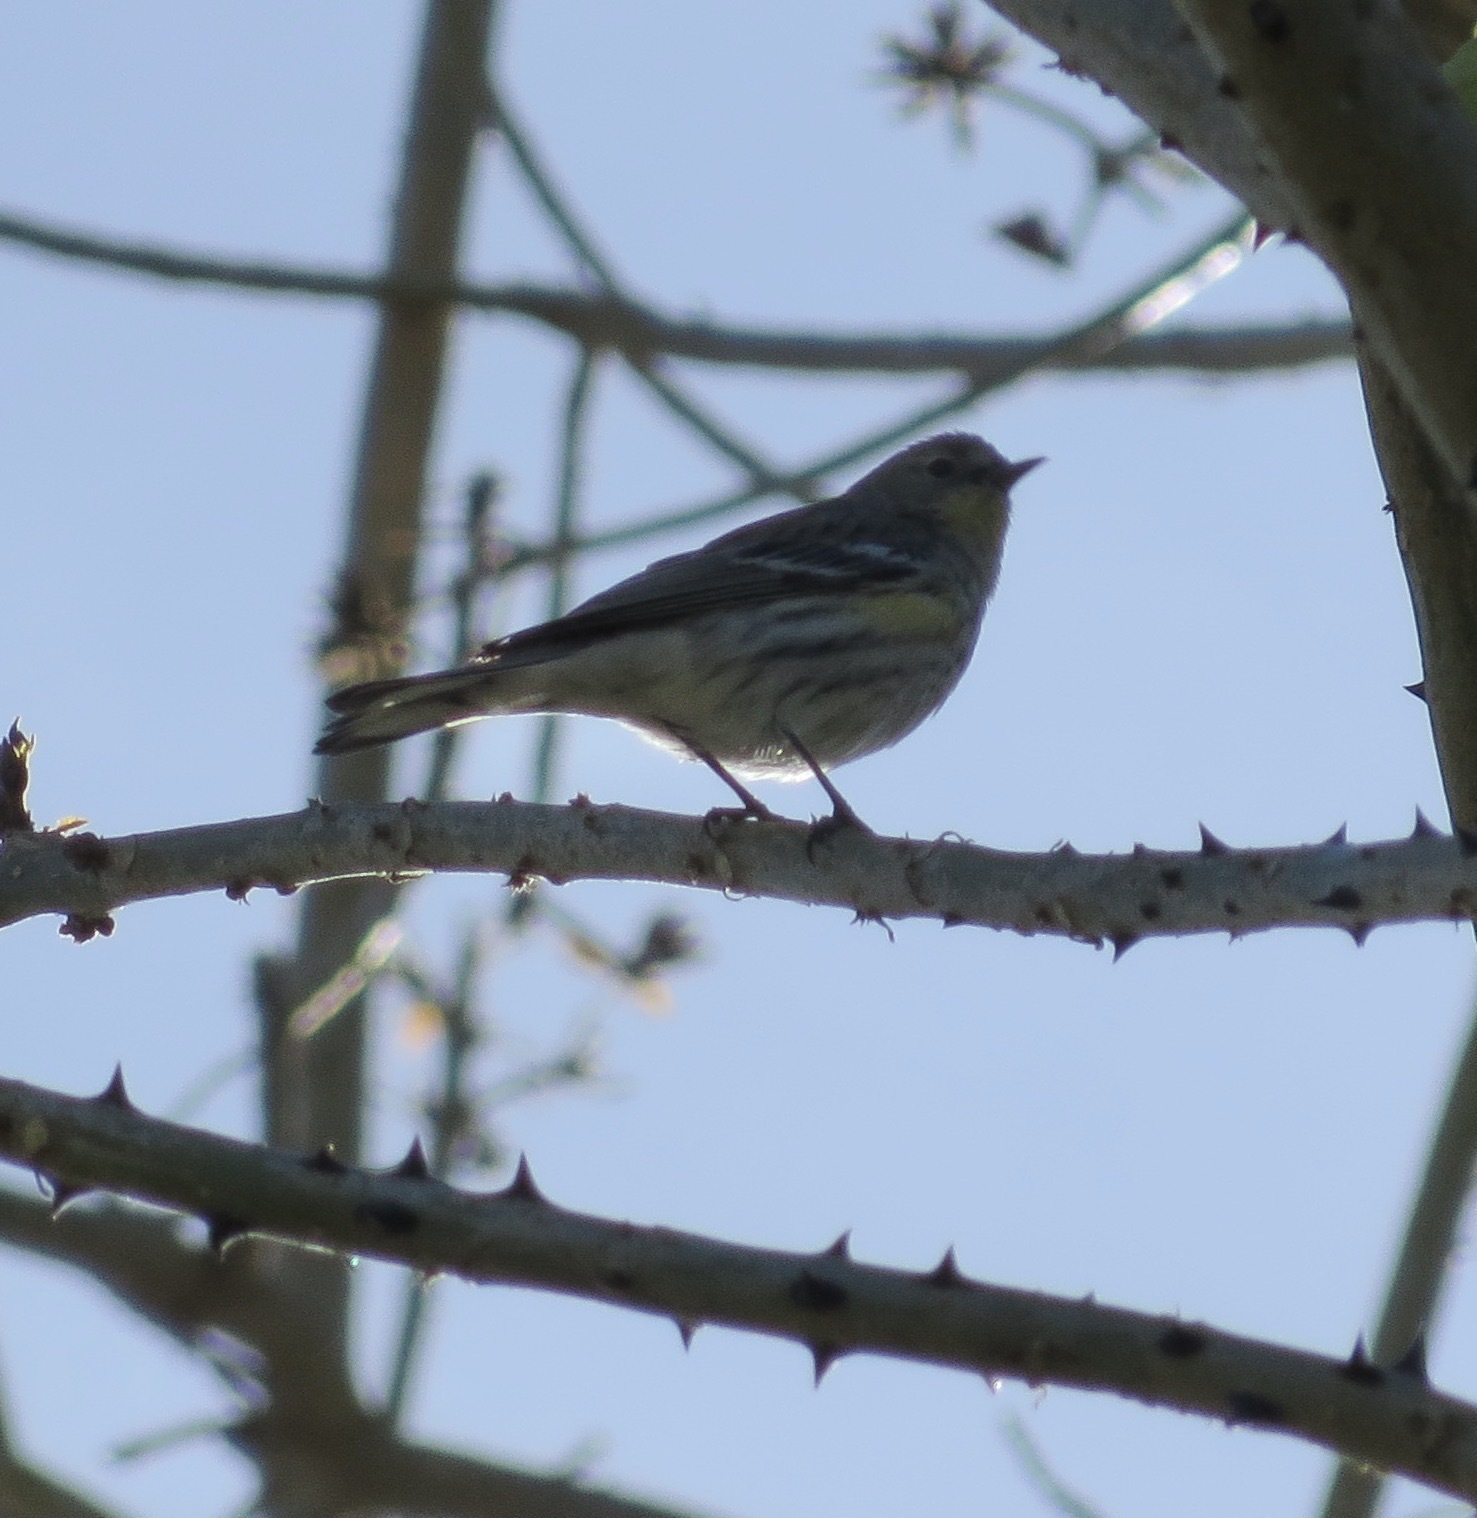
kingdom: Animalia
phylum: Chordata
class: Aves
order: Passeriformes
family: Parulidae
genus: Setophaga
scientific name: Setophaga coronata
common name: Myrtle warbler
